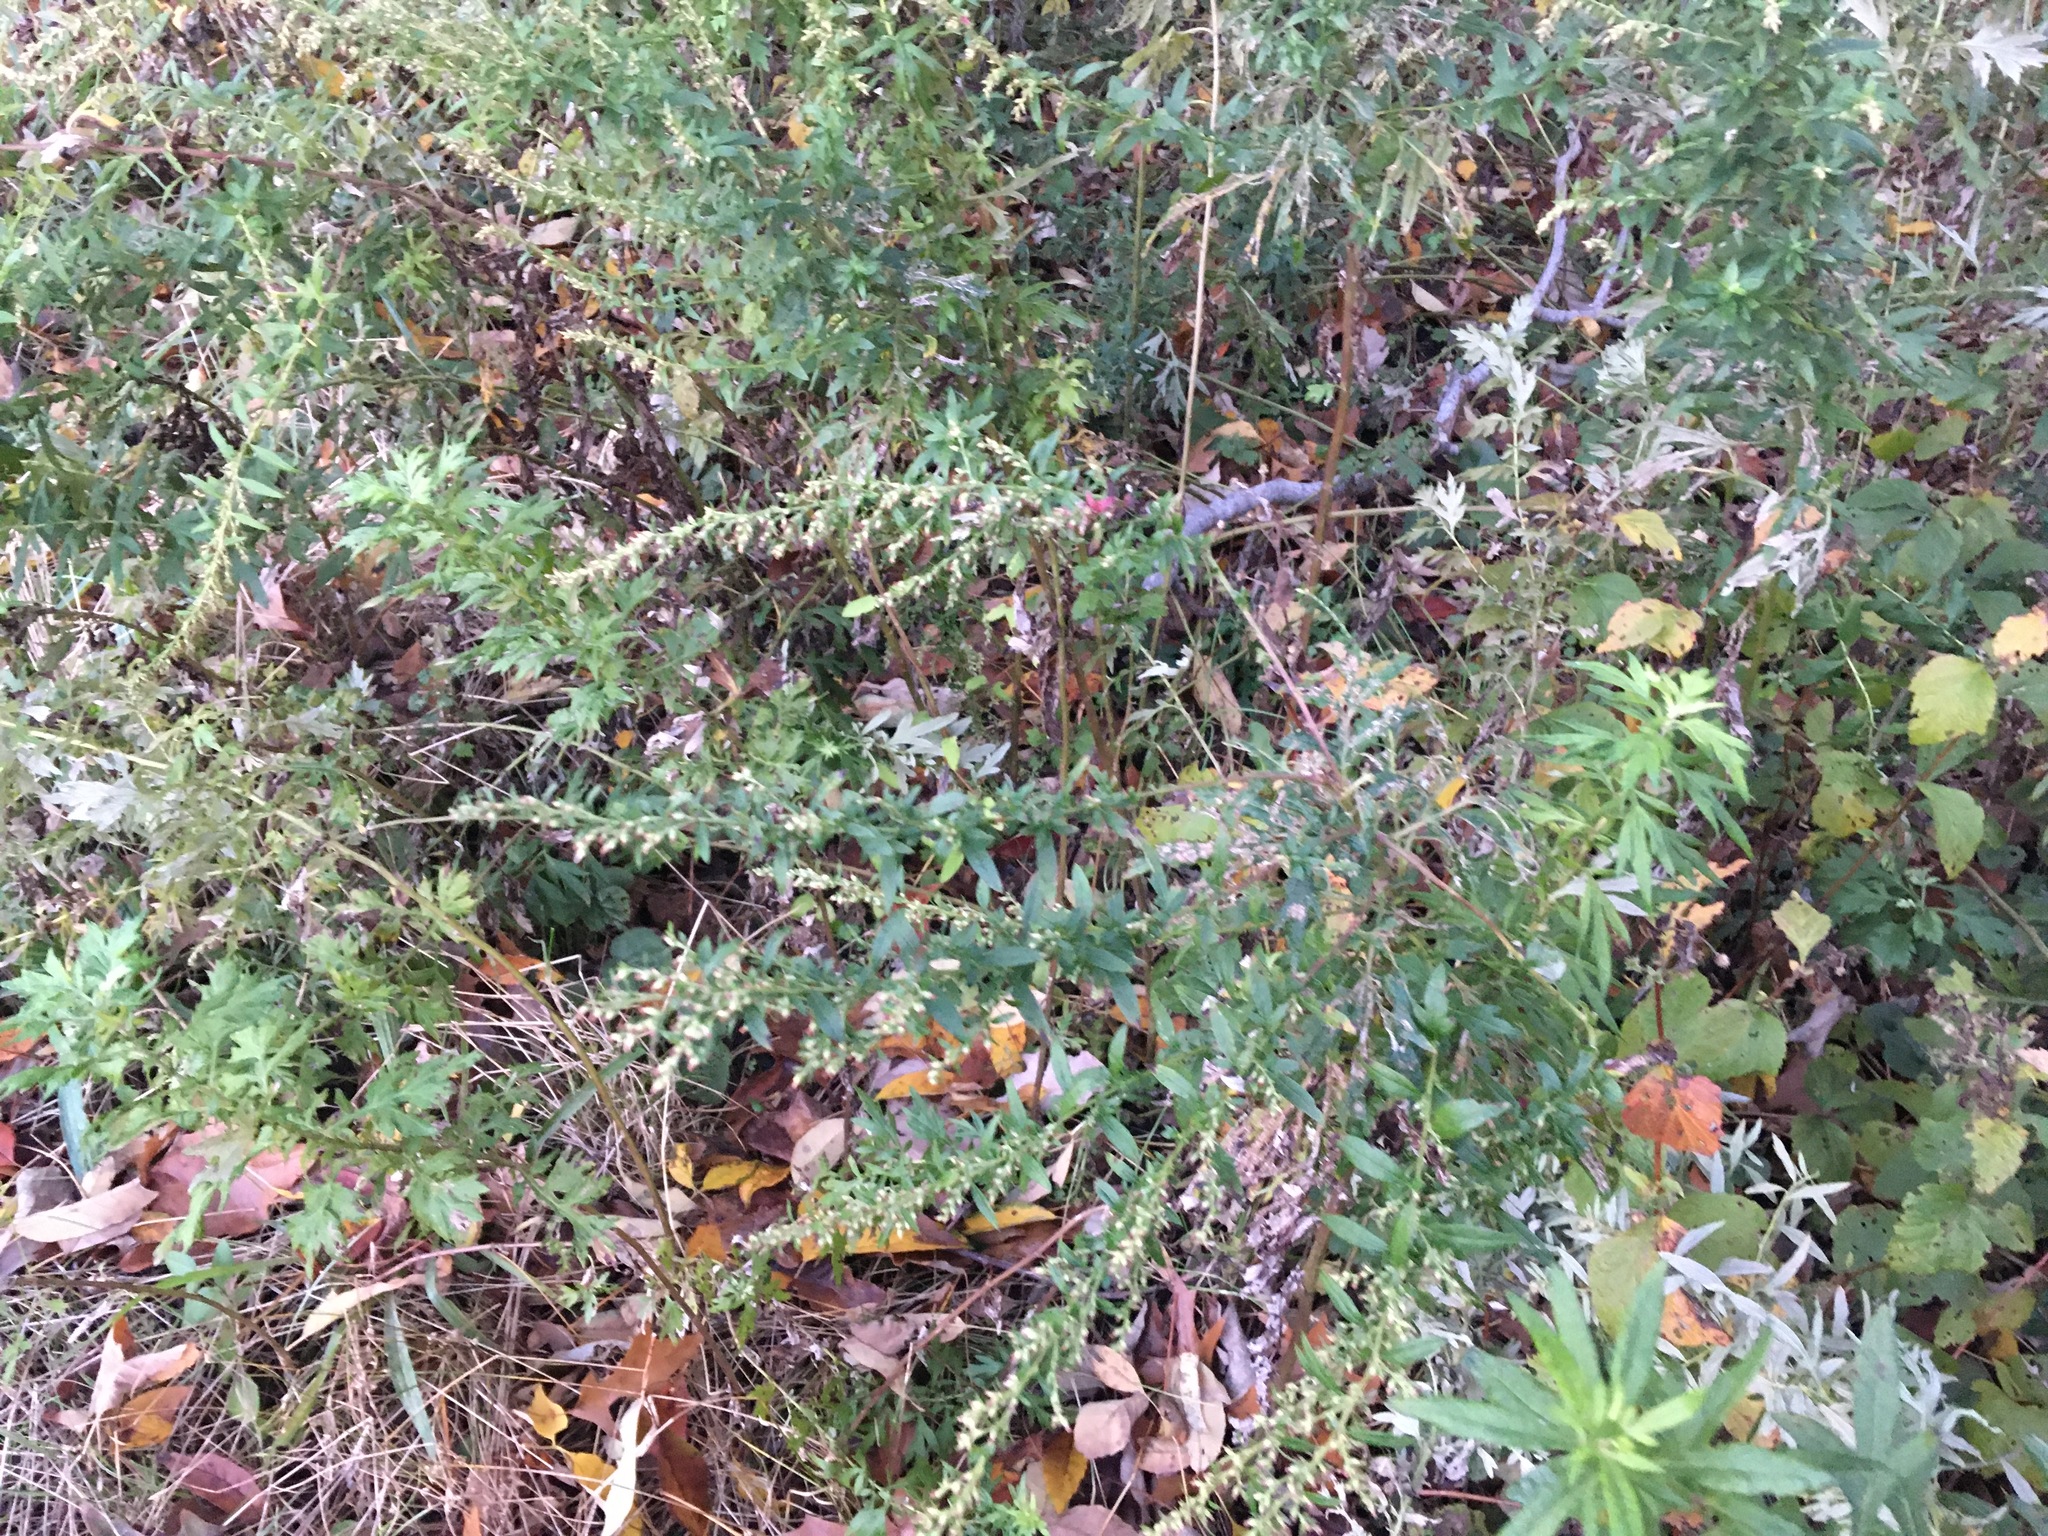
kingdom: Plantae
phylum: Tracheophyta
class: Magnoliopsida
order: Asterales
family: Asteraceae
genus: Artemisia
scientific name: Artemisia vulgaris
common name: Mugwort
